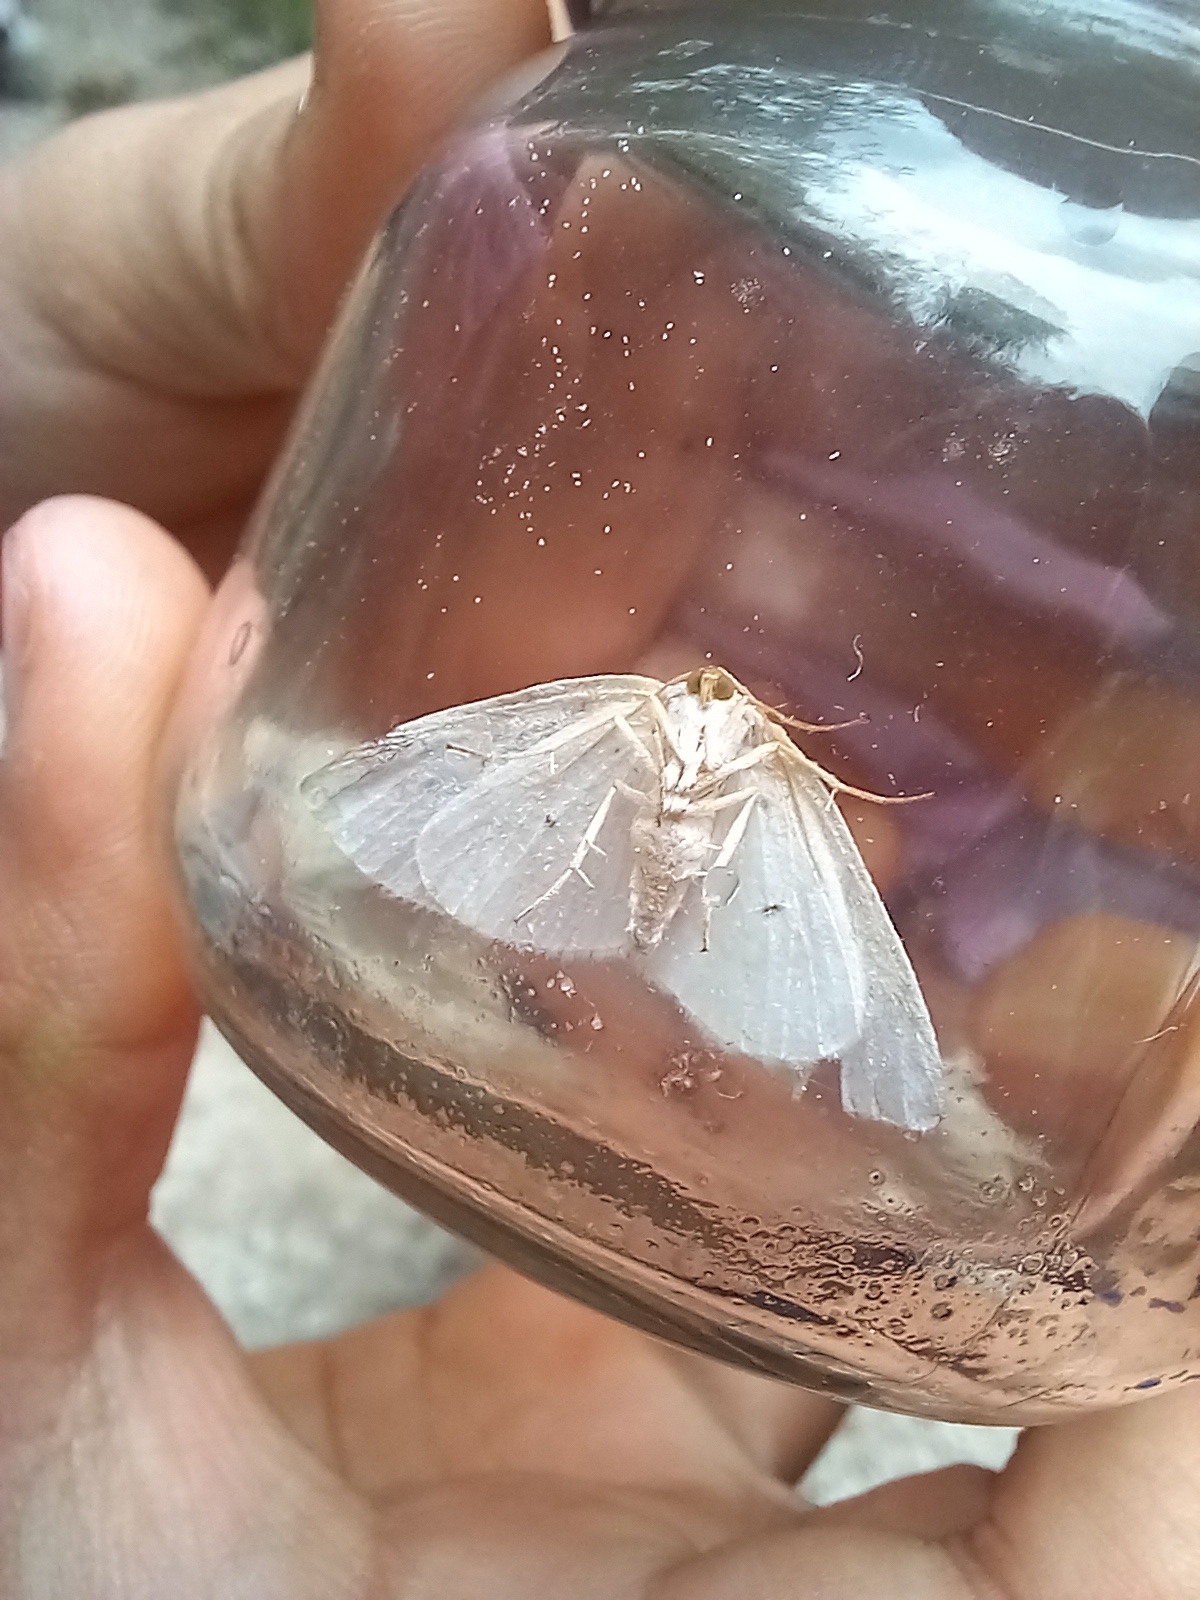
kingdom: Animalia
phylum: Arthropoda
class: Insecta
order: Lepidoptera
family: Geometridae
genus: Lomographa
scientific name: Lomographa bimaculata
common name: White-pinion spotted
